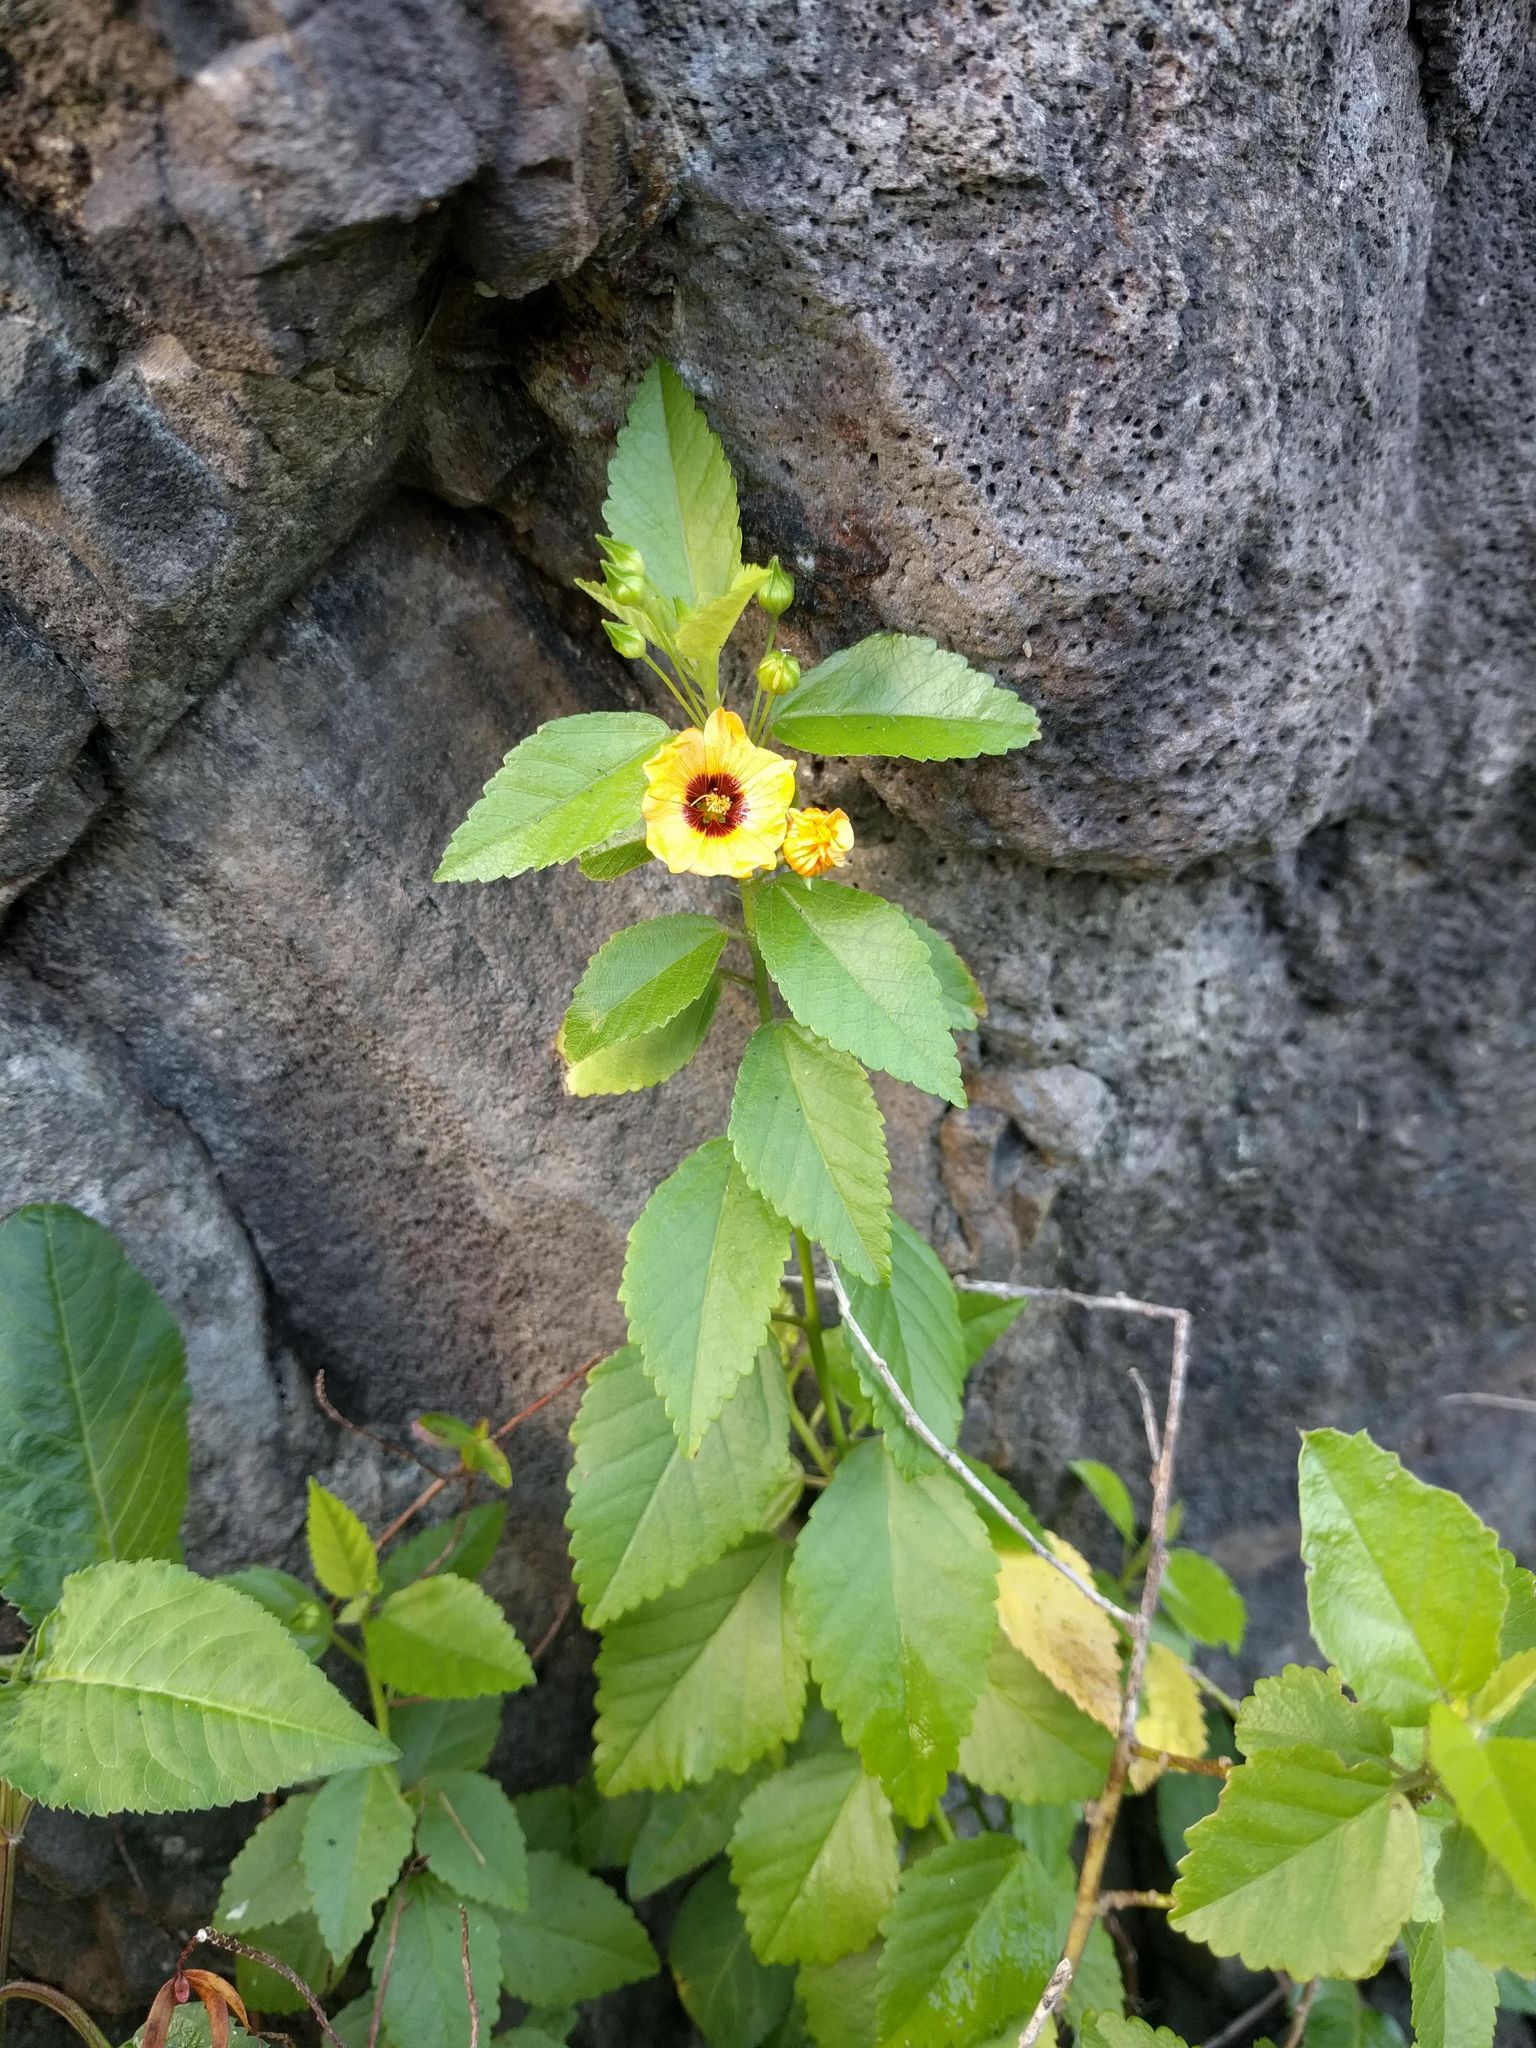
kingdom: Plantae
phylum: Tracheophyta
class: Magnoliopsida
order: Malvales
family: Malvaceae
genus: Sida
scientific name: Sida fallax
